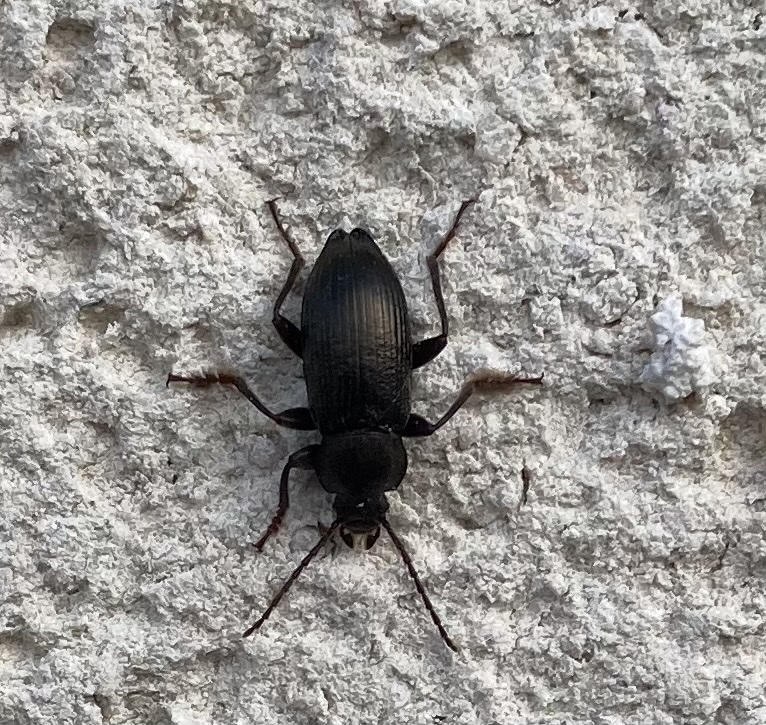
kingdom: Animalia
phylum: Arthropoda
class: Insecta
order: Coleoptera
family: Tenebrionidae
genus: Stenomax
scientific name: Stenomax aeneus
